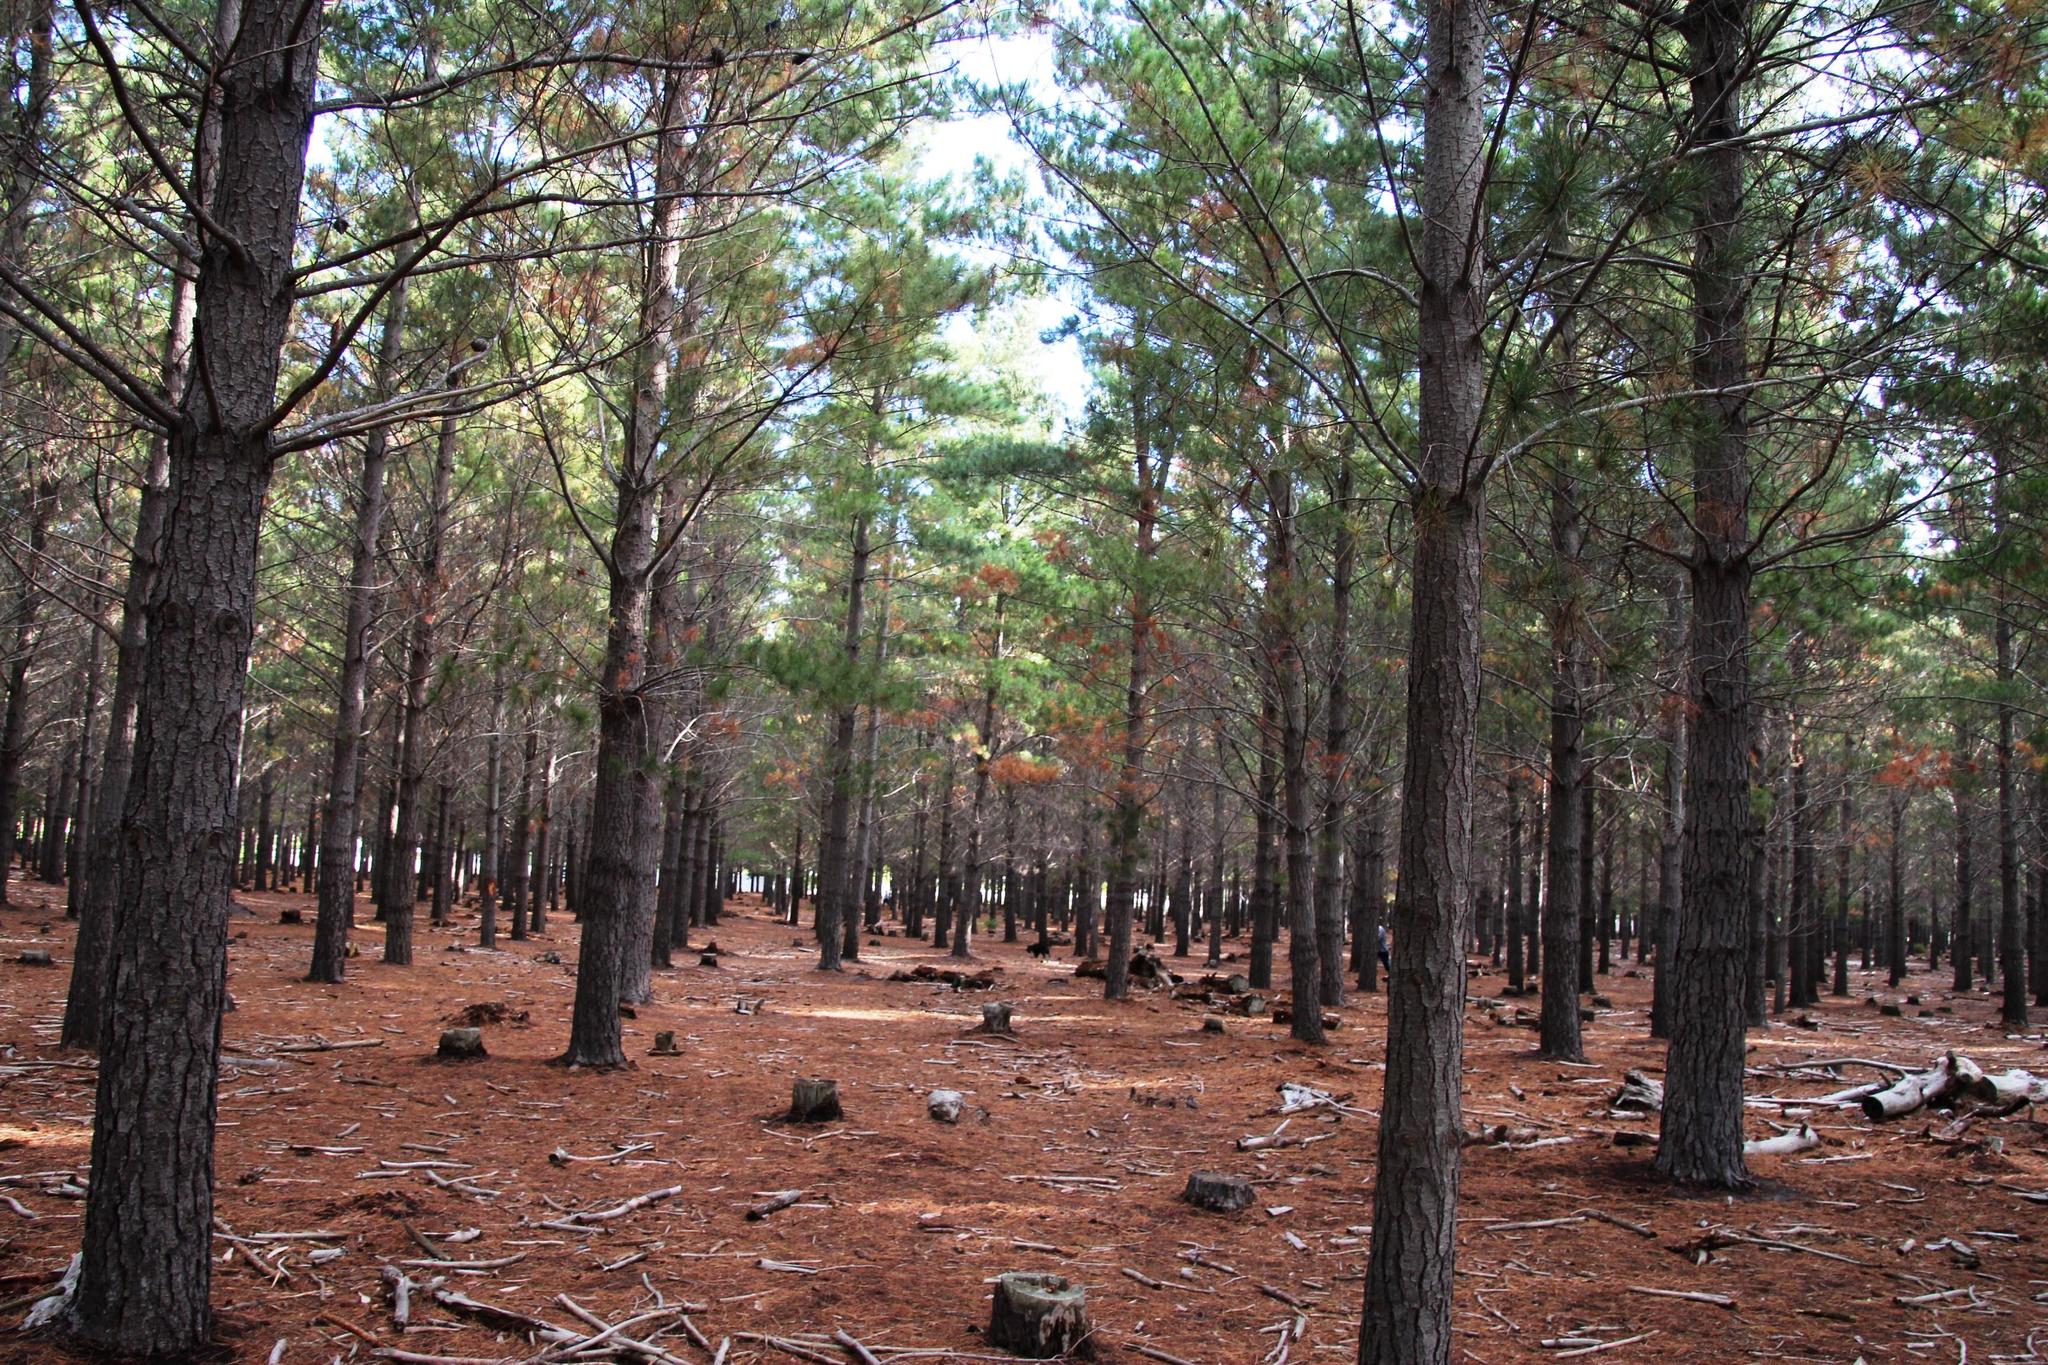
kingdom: Fungi
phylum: Ascomycota
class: Dothideomycetes
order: Botryosphaeriales
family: Botryosphaeriaceae
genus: Sphaeropsis
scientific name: Sphaeropsis sapinea
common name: Sphaeropsis blight
